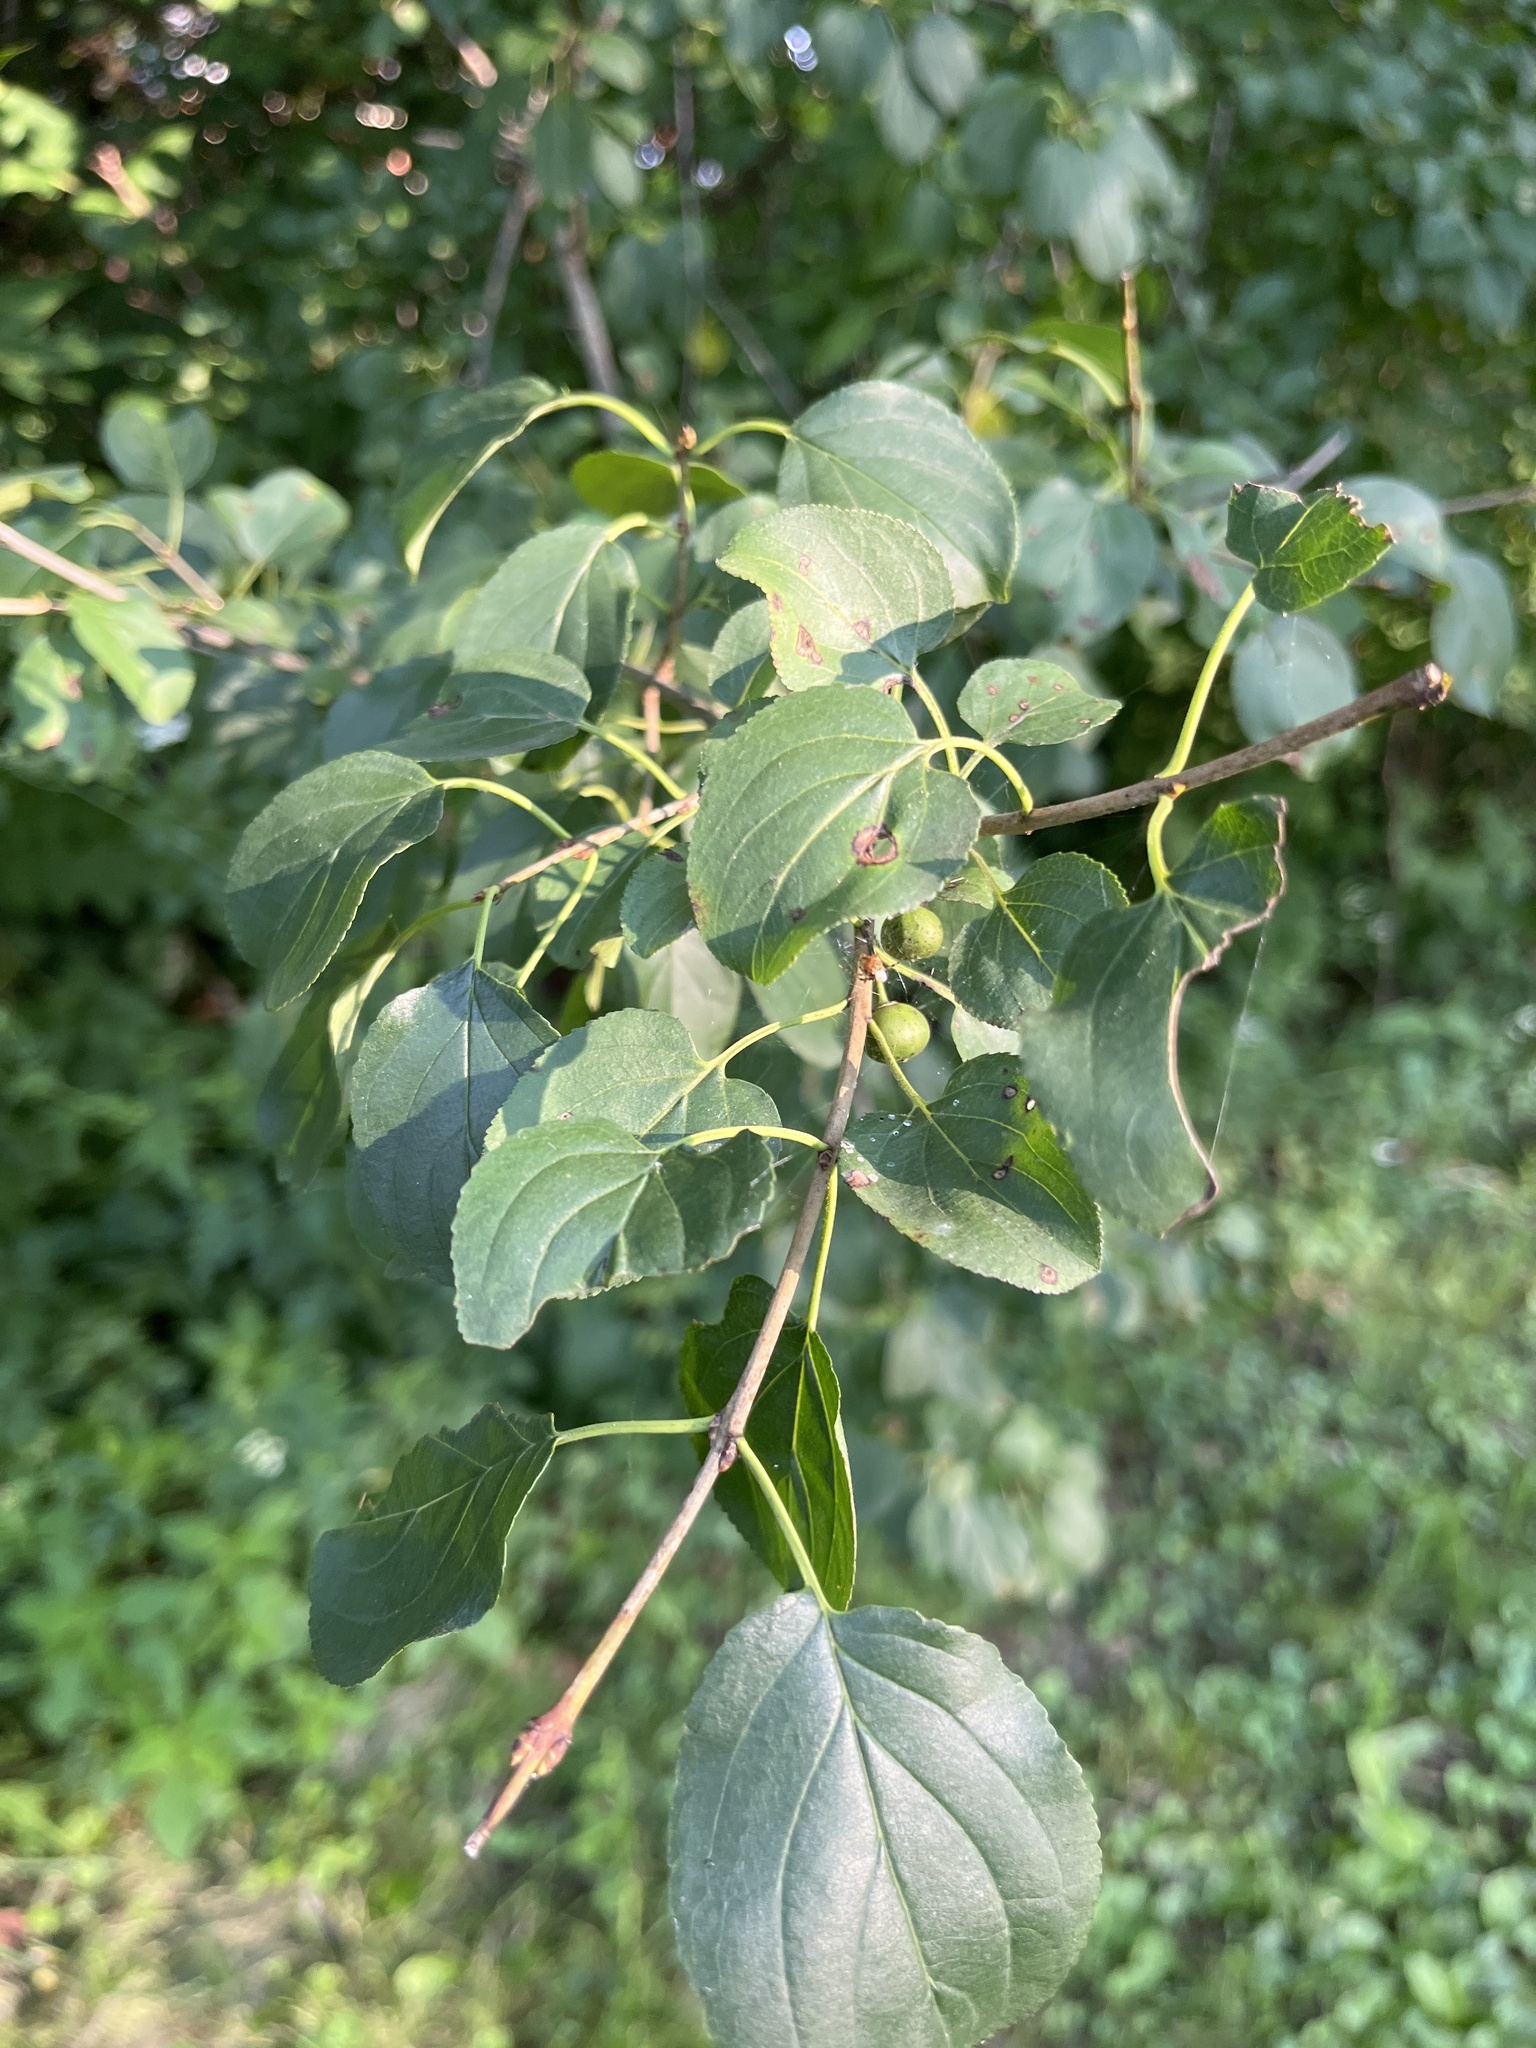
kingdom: Plantae
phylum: Tracheophyta
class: Magnoliopsida
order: Rosales
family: Rhamnaceae
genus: Rhamnus
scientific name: Rhamnus cathartica
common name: Common buckthorn
